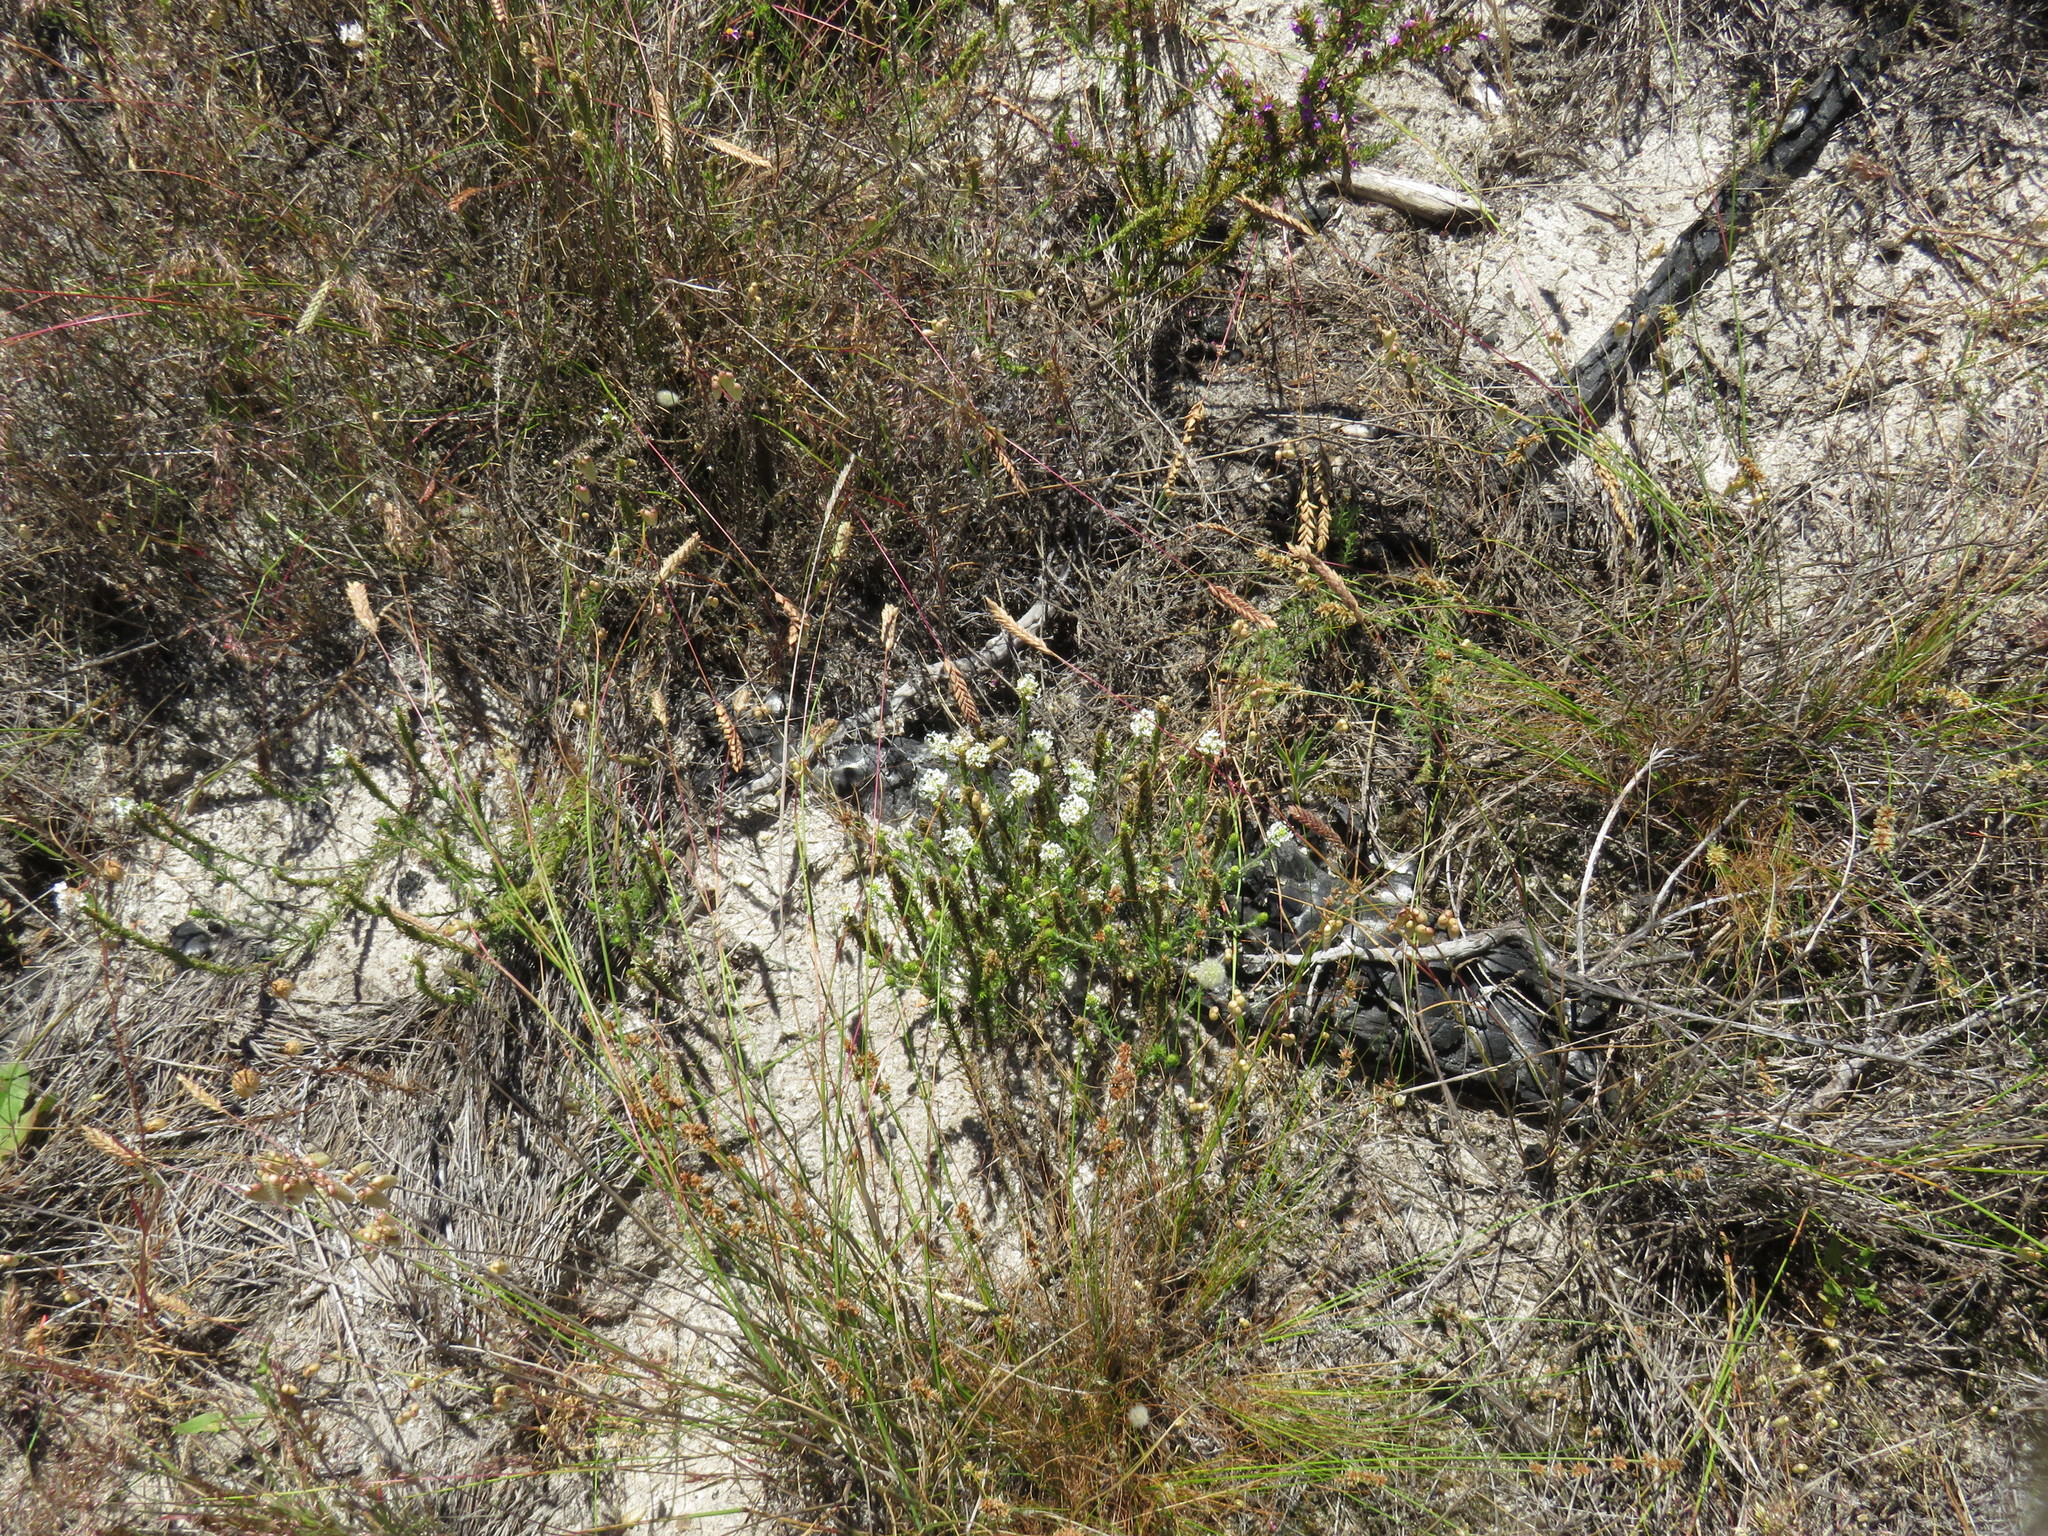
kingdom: Plantae
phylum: Tracheophyta
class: Liliopsida
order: Poales
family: Poaceae
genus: Tribolium
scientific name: Tribolium uniolae
